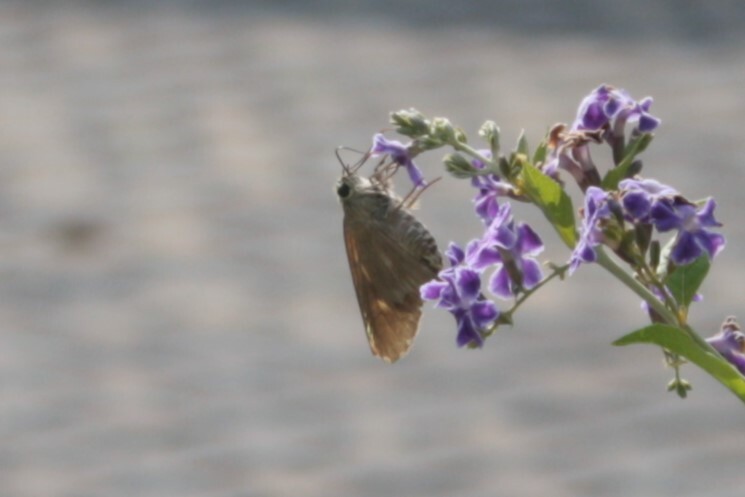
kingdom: Animalia
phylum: Arthropoda
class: Insecta
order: Lepidoptera
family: Hesperiidae
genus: Badamia
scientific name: Badamia exclamationis
